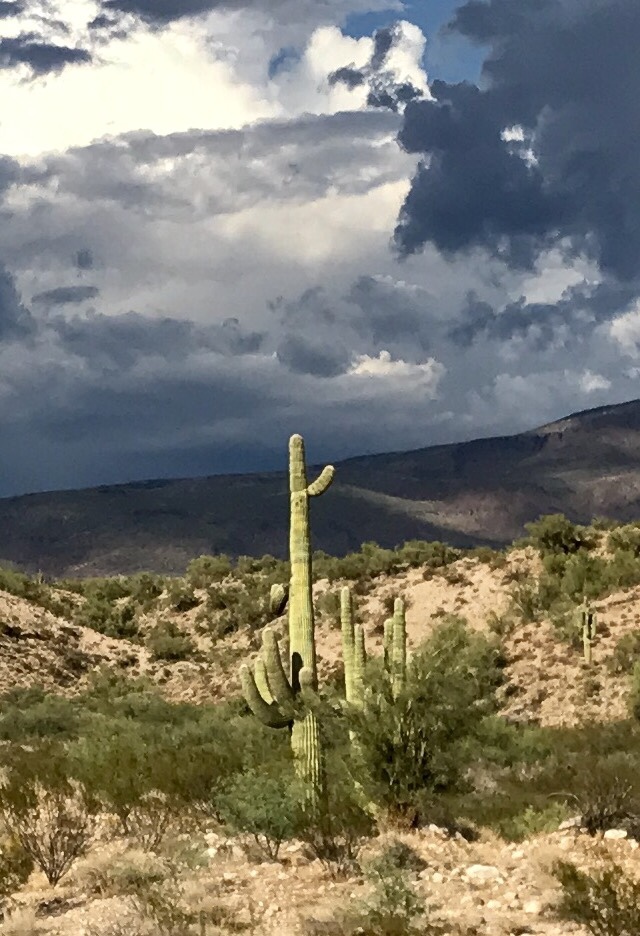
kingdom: Plantae
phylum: Tracheophyta
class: Magnoliopsida
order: Caryophyllales
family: Cactaceae
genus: Carnegiea
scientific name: Carnegiea gigantea
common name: Saguaro
